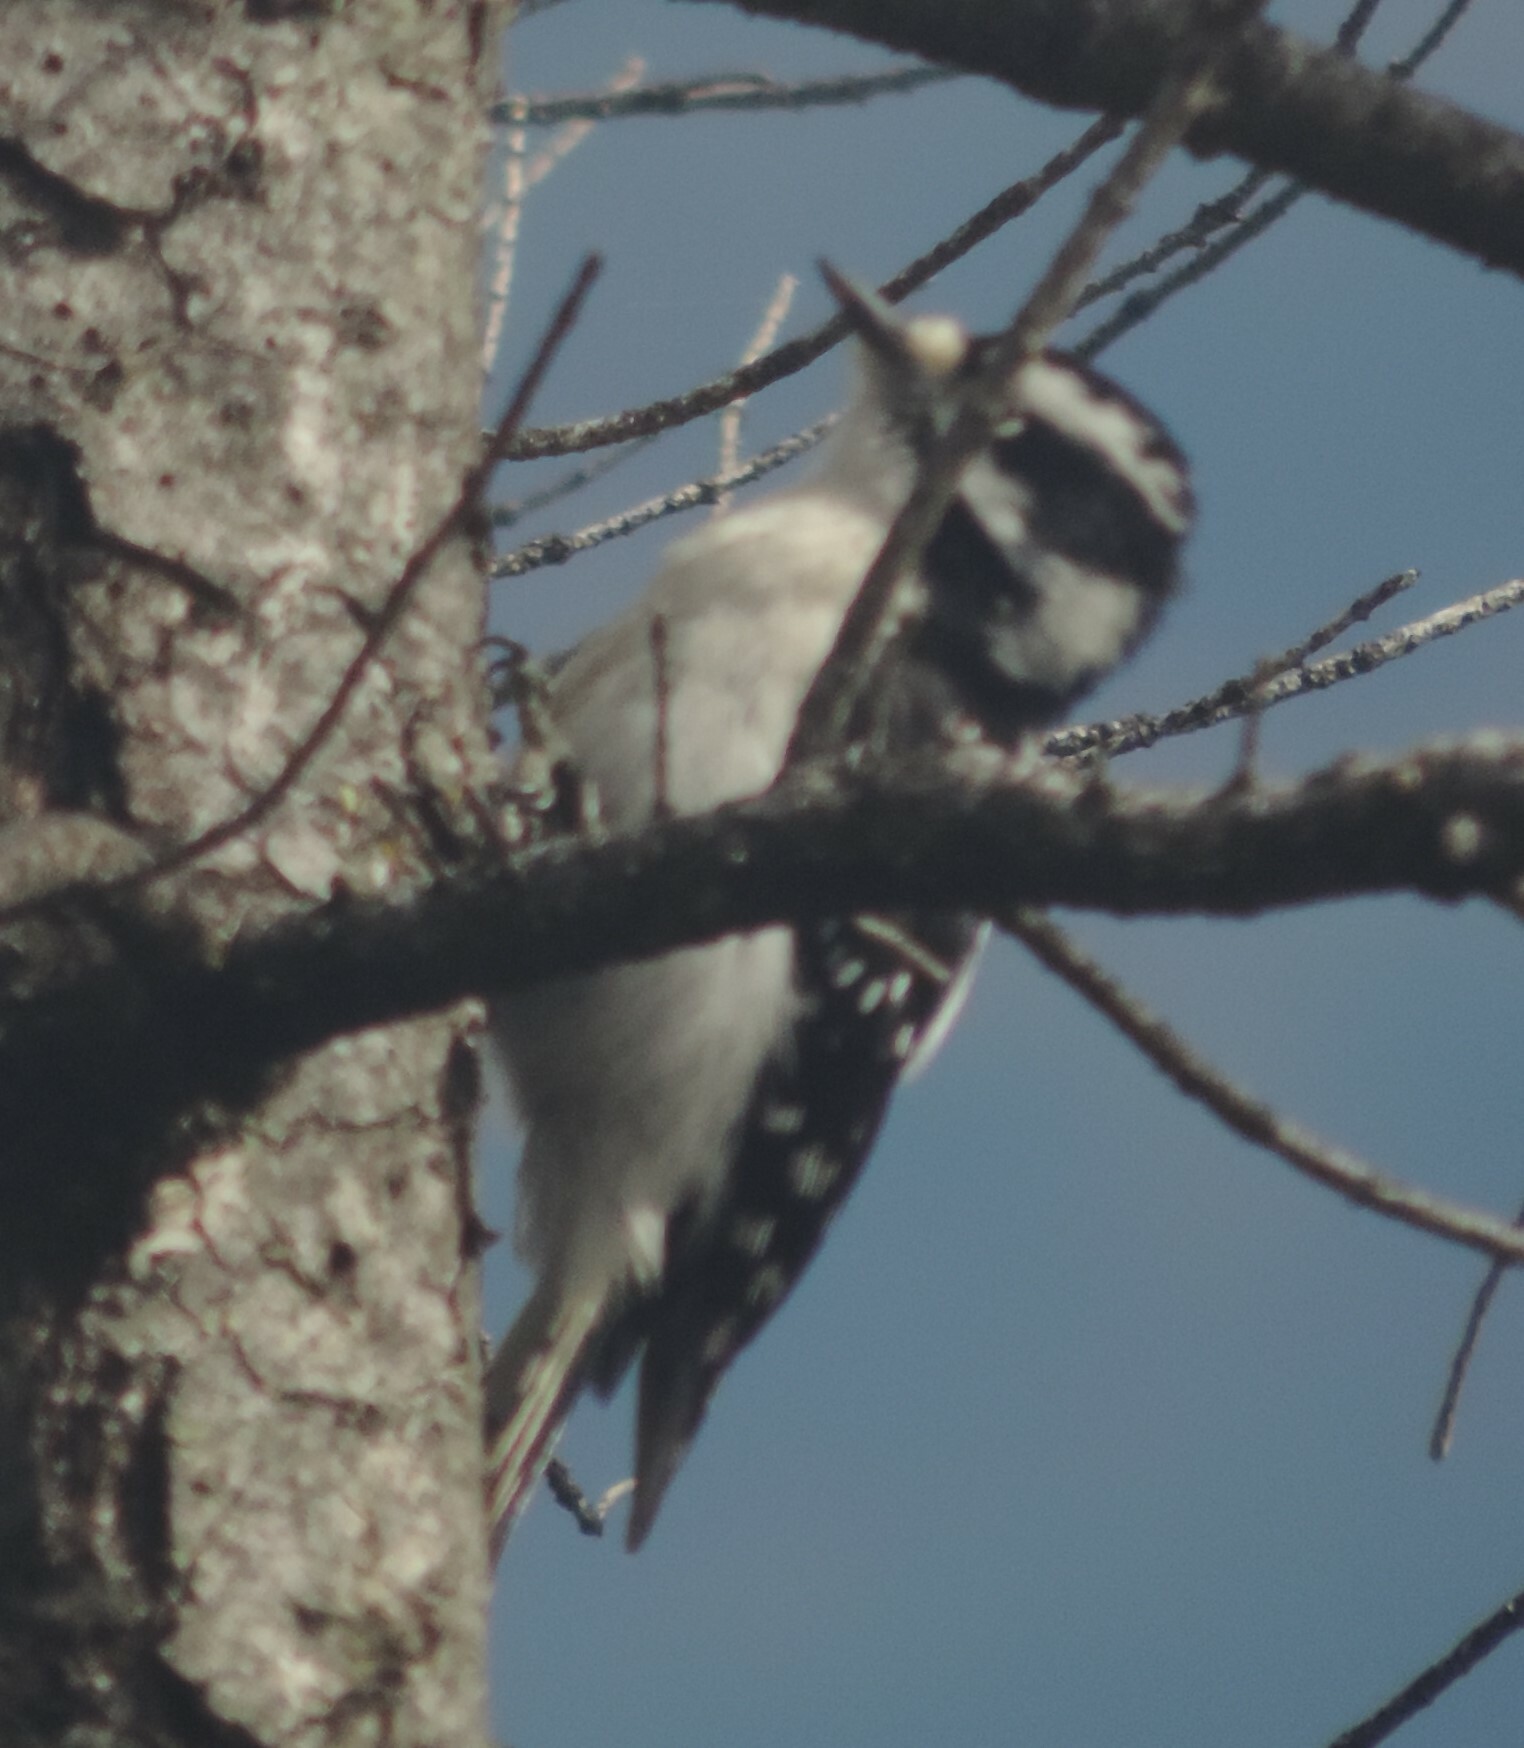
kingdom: Animalia
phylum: Chordata
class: Aves
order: Piciformes
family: Picidae
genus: Dryobates
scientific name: Dryobates pubescens
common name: Downy woodpecker
